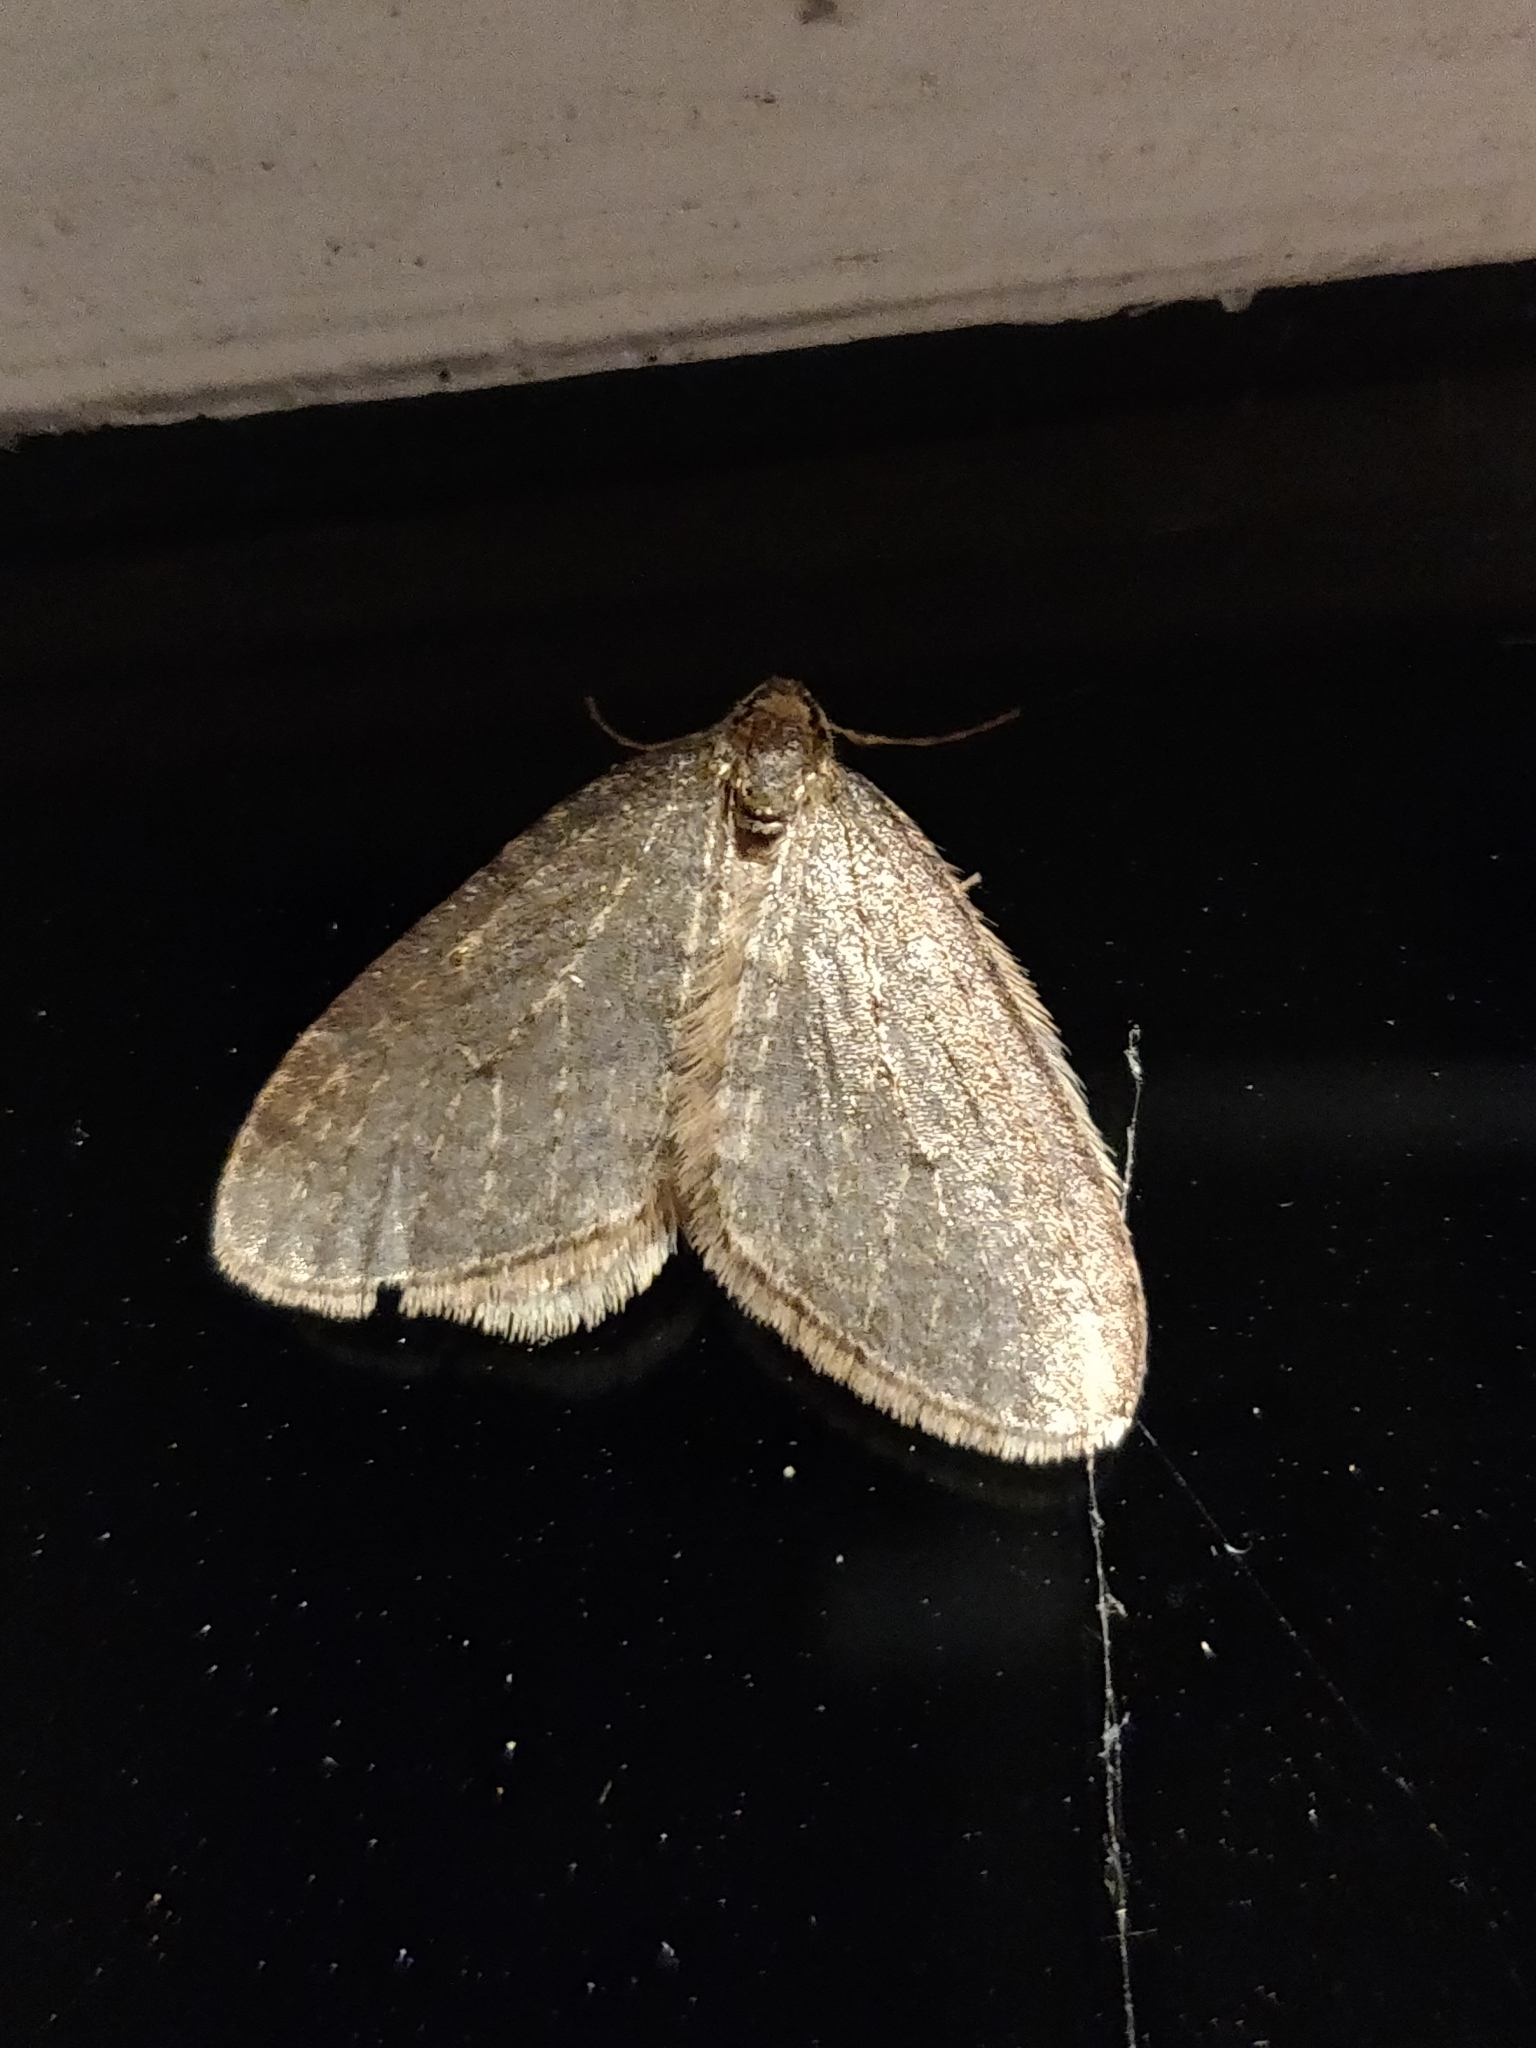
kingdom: Animalia
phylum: Arthropoda
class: Insecta
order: Lepidoptera
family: Geometridae
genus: Operophtera
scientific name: Operophtera fagata
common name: Northern winter moth
